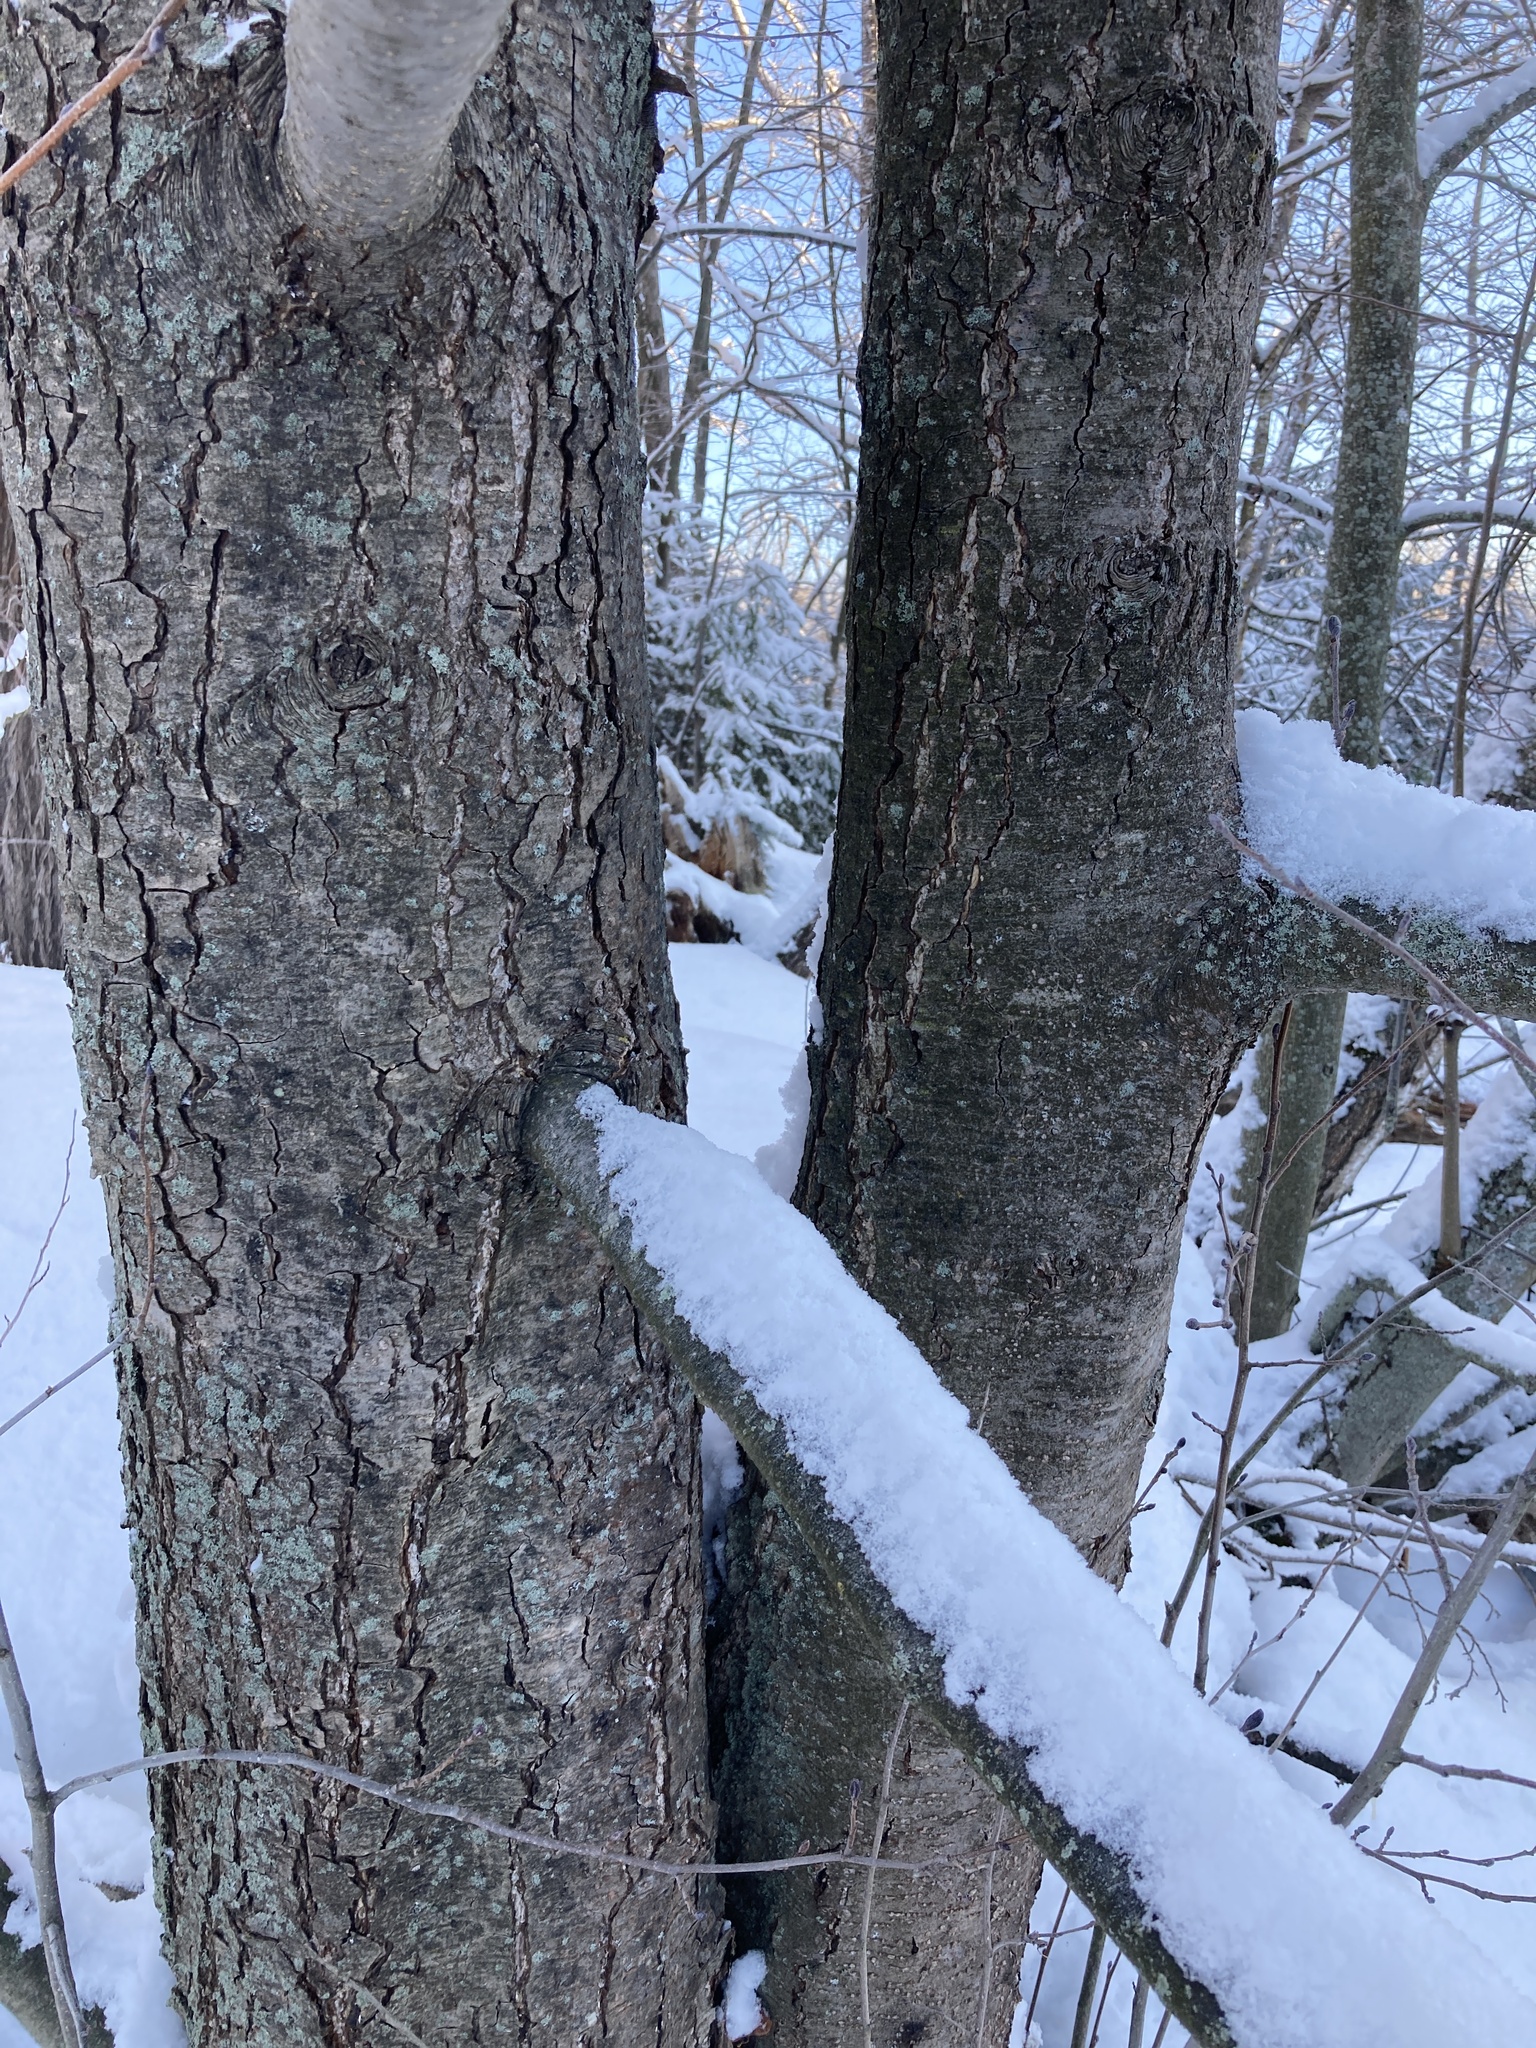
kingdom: Plantae
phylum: Tracheophyta
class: Magnoliopsida
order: Fagales
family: Betulaceae
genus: Alnus
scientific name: Alnus glutinosa
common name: Black alder
